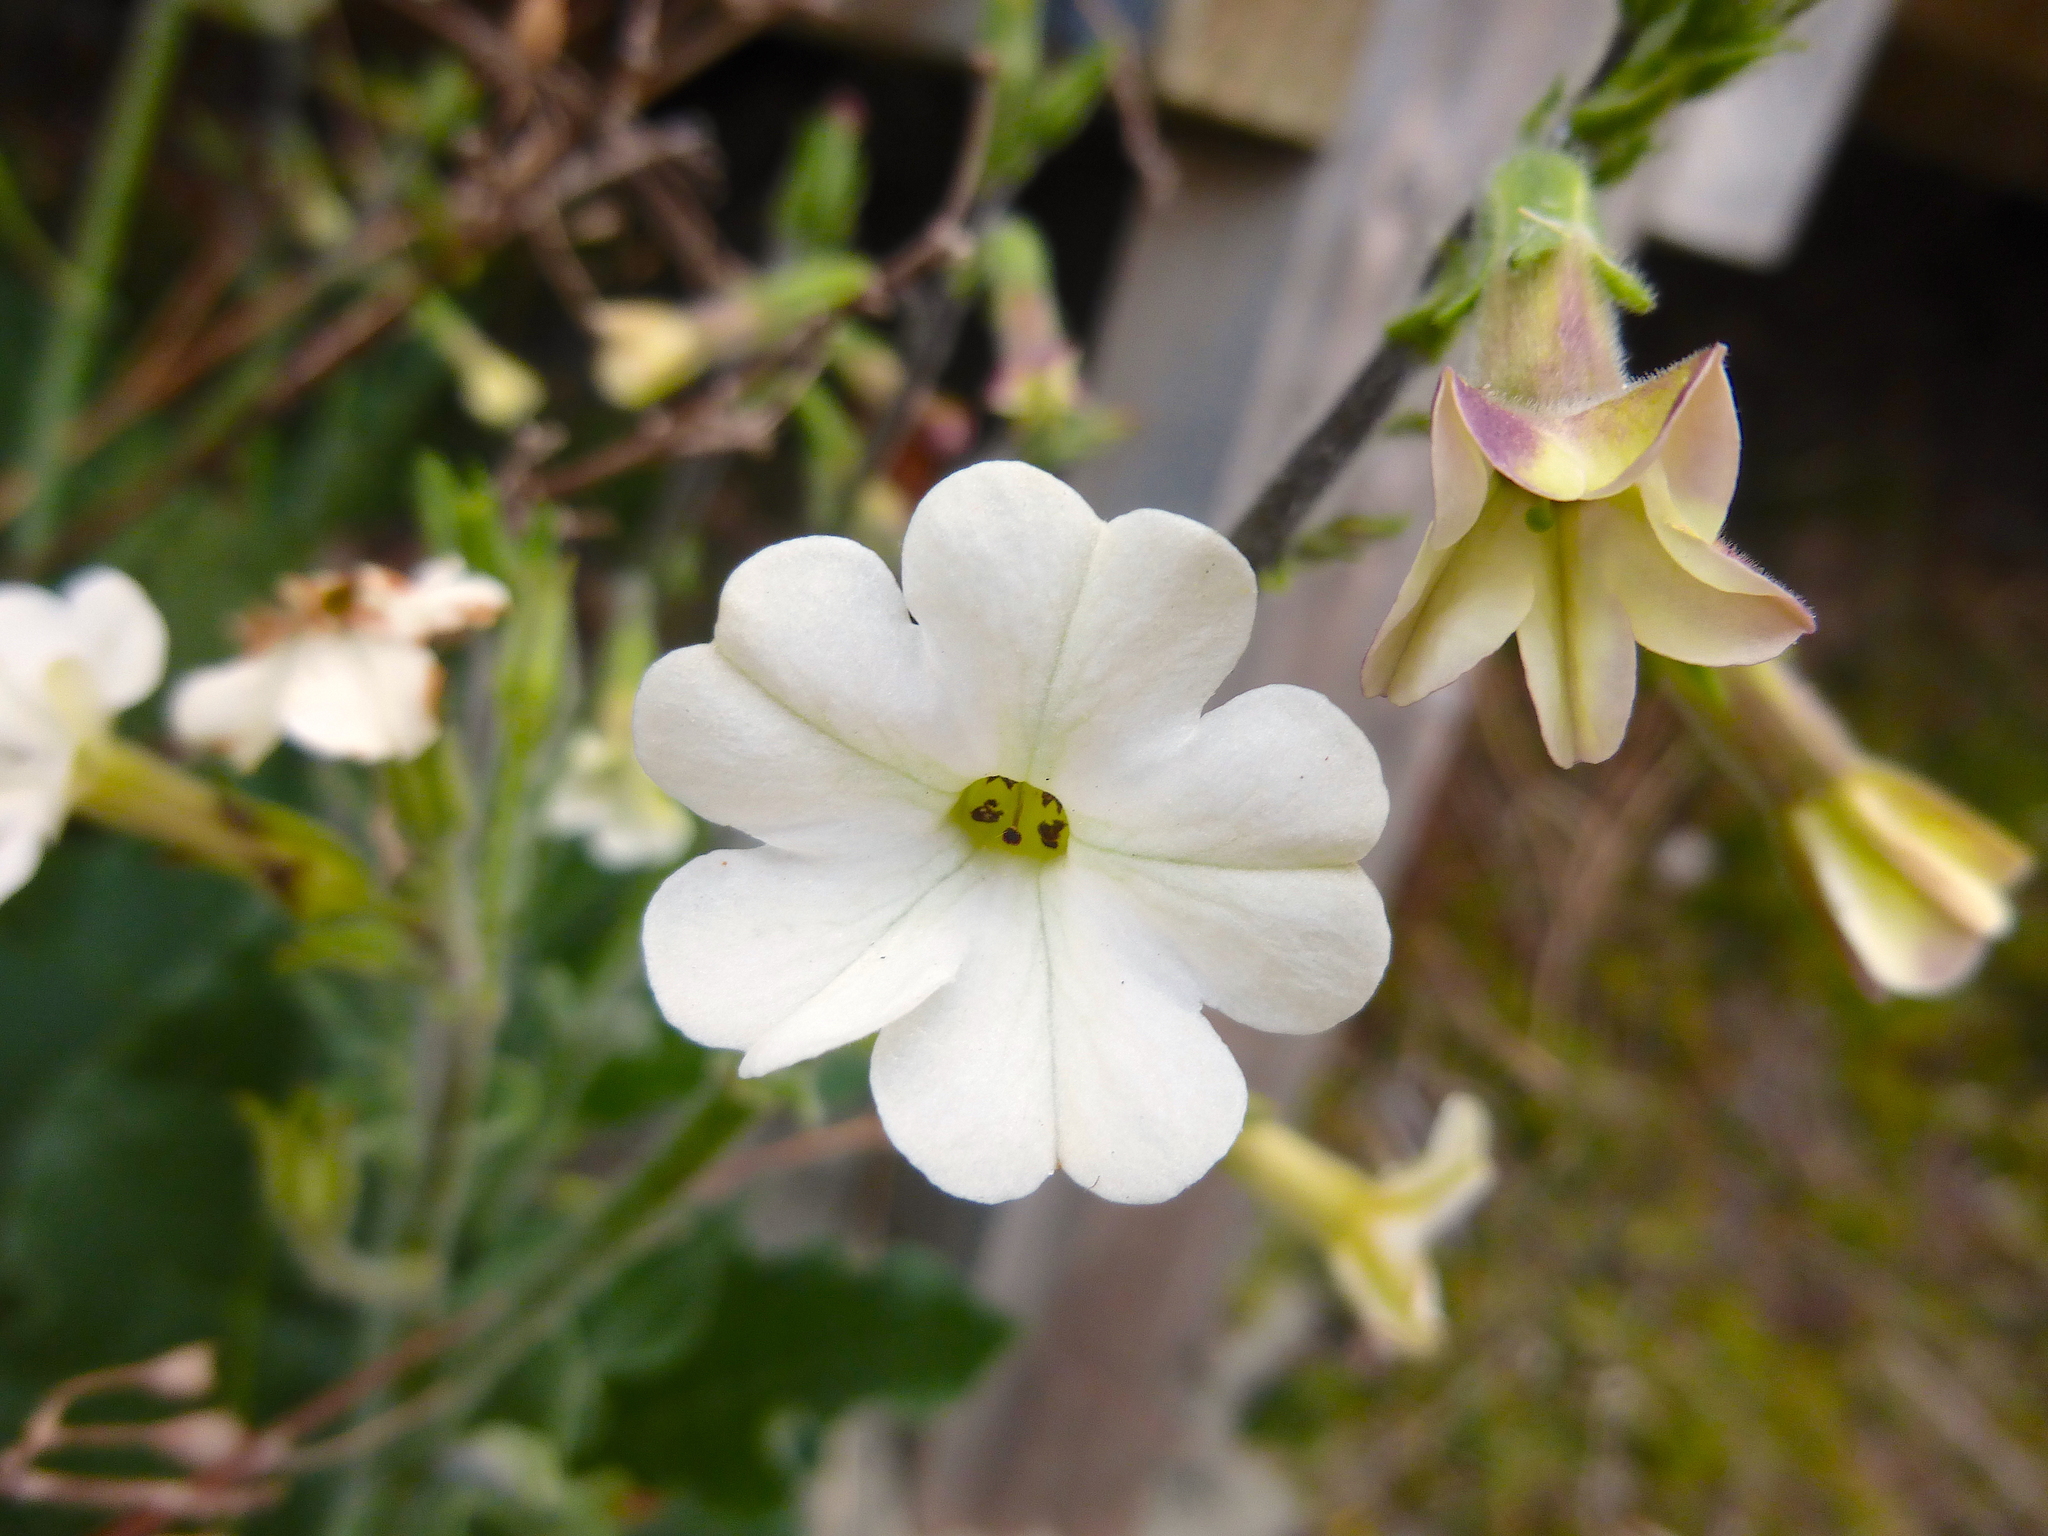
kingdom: Plantae
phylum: Tracheophyta
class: Magnoliopsida
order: Solanales
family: Solanaceae
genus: Nicotiana
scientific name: Nicotiana maritima
